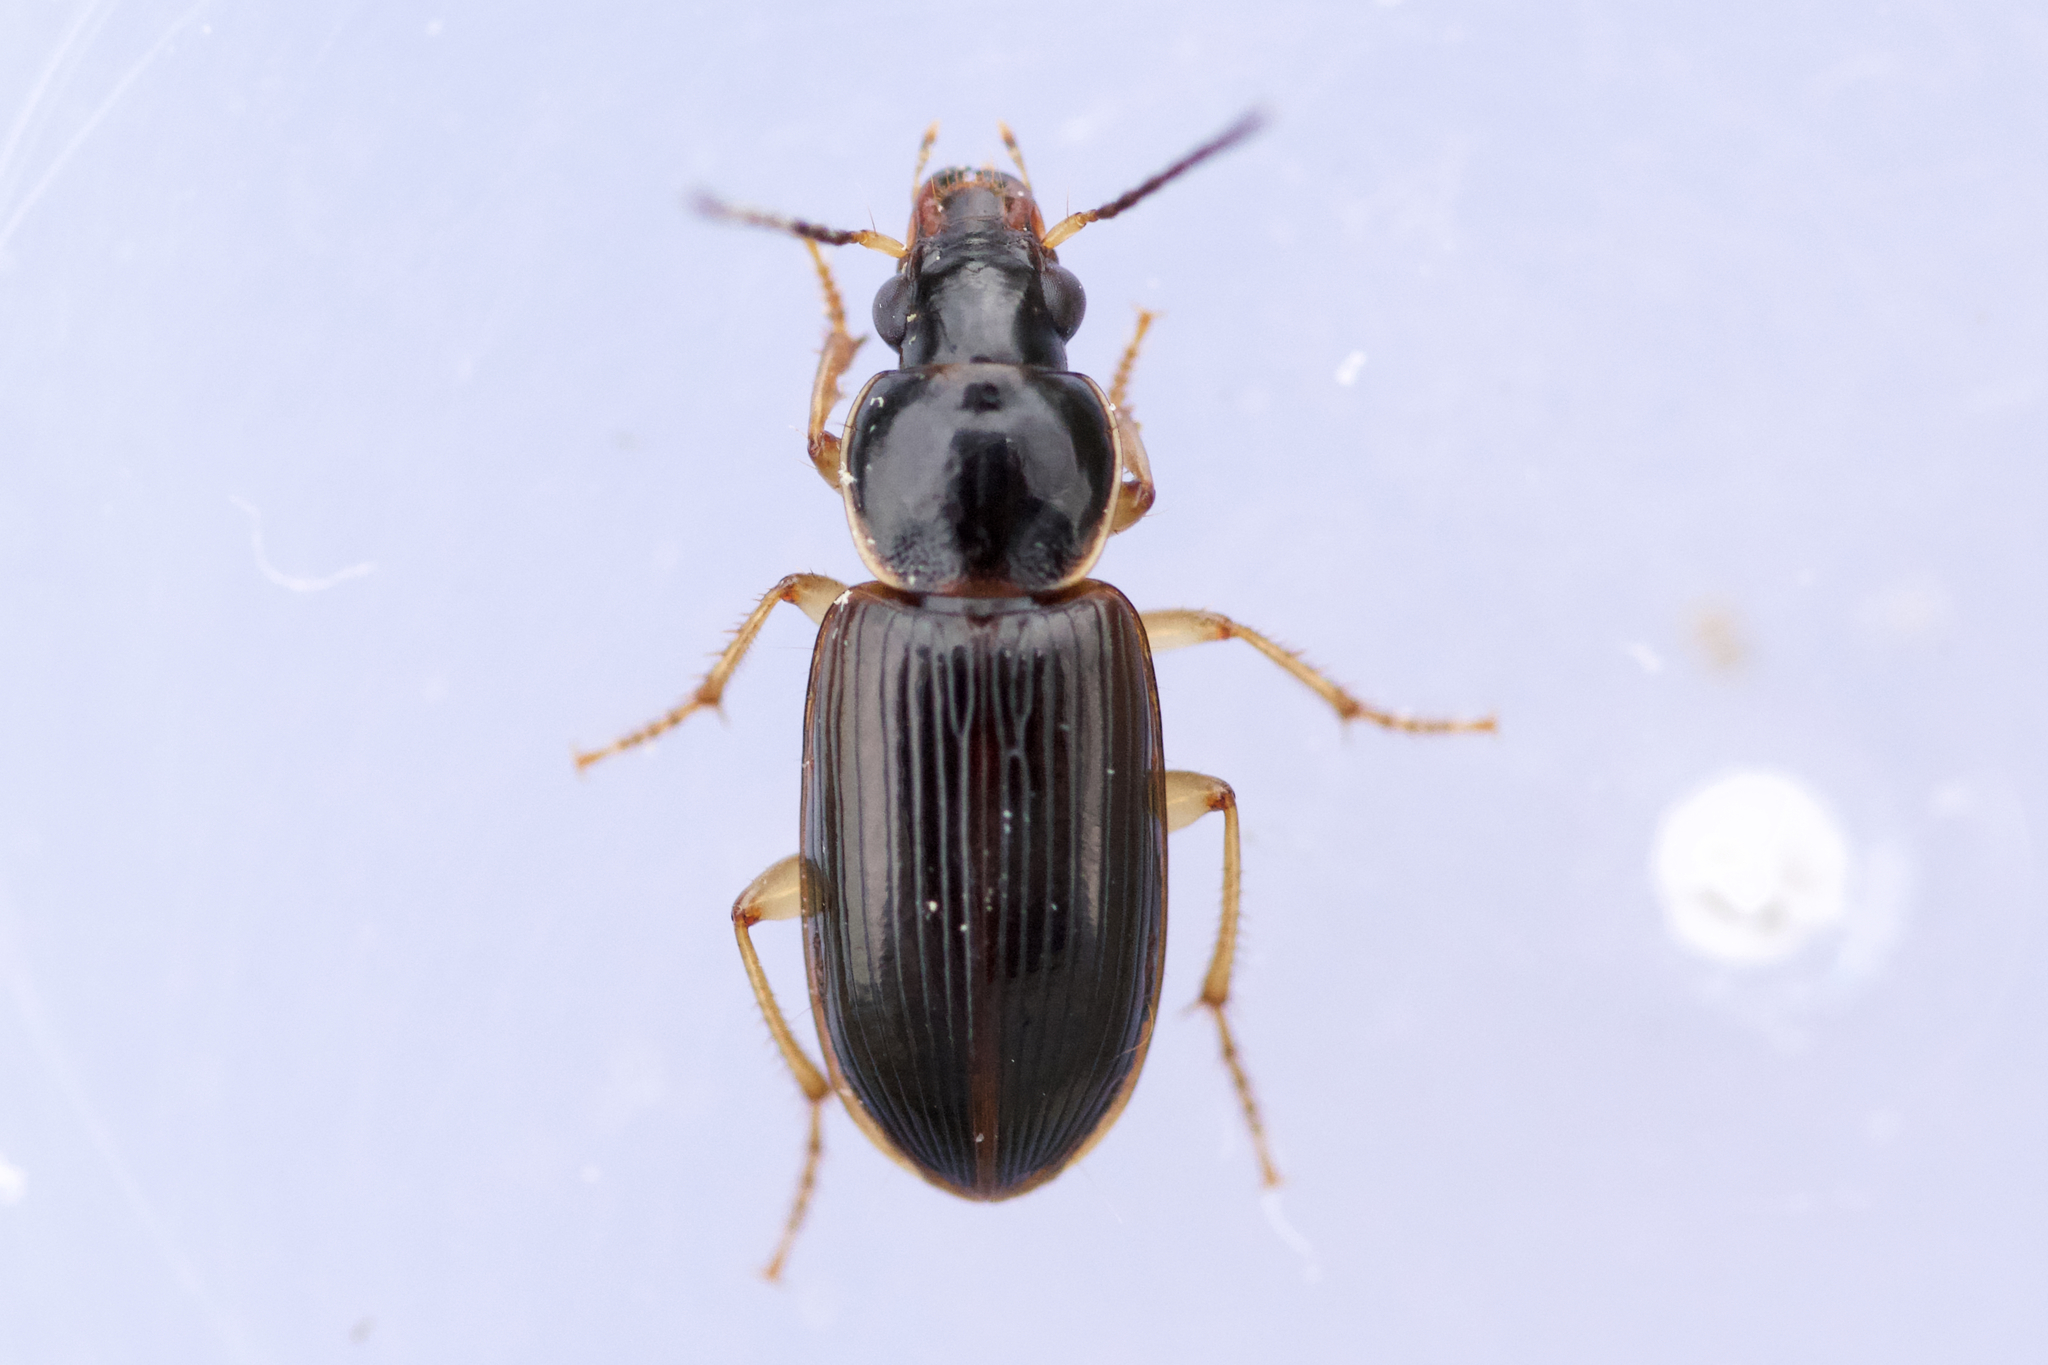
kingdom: Animalia
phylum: Arthropoda
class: Insecta
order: Coleoptera
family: Carabidae
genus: Stenolophus
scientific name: Stenolophus ochropezus
